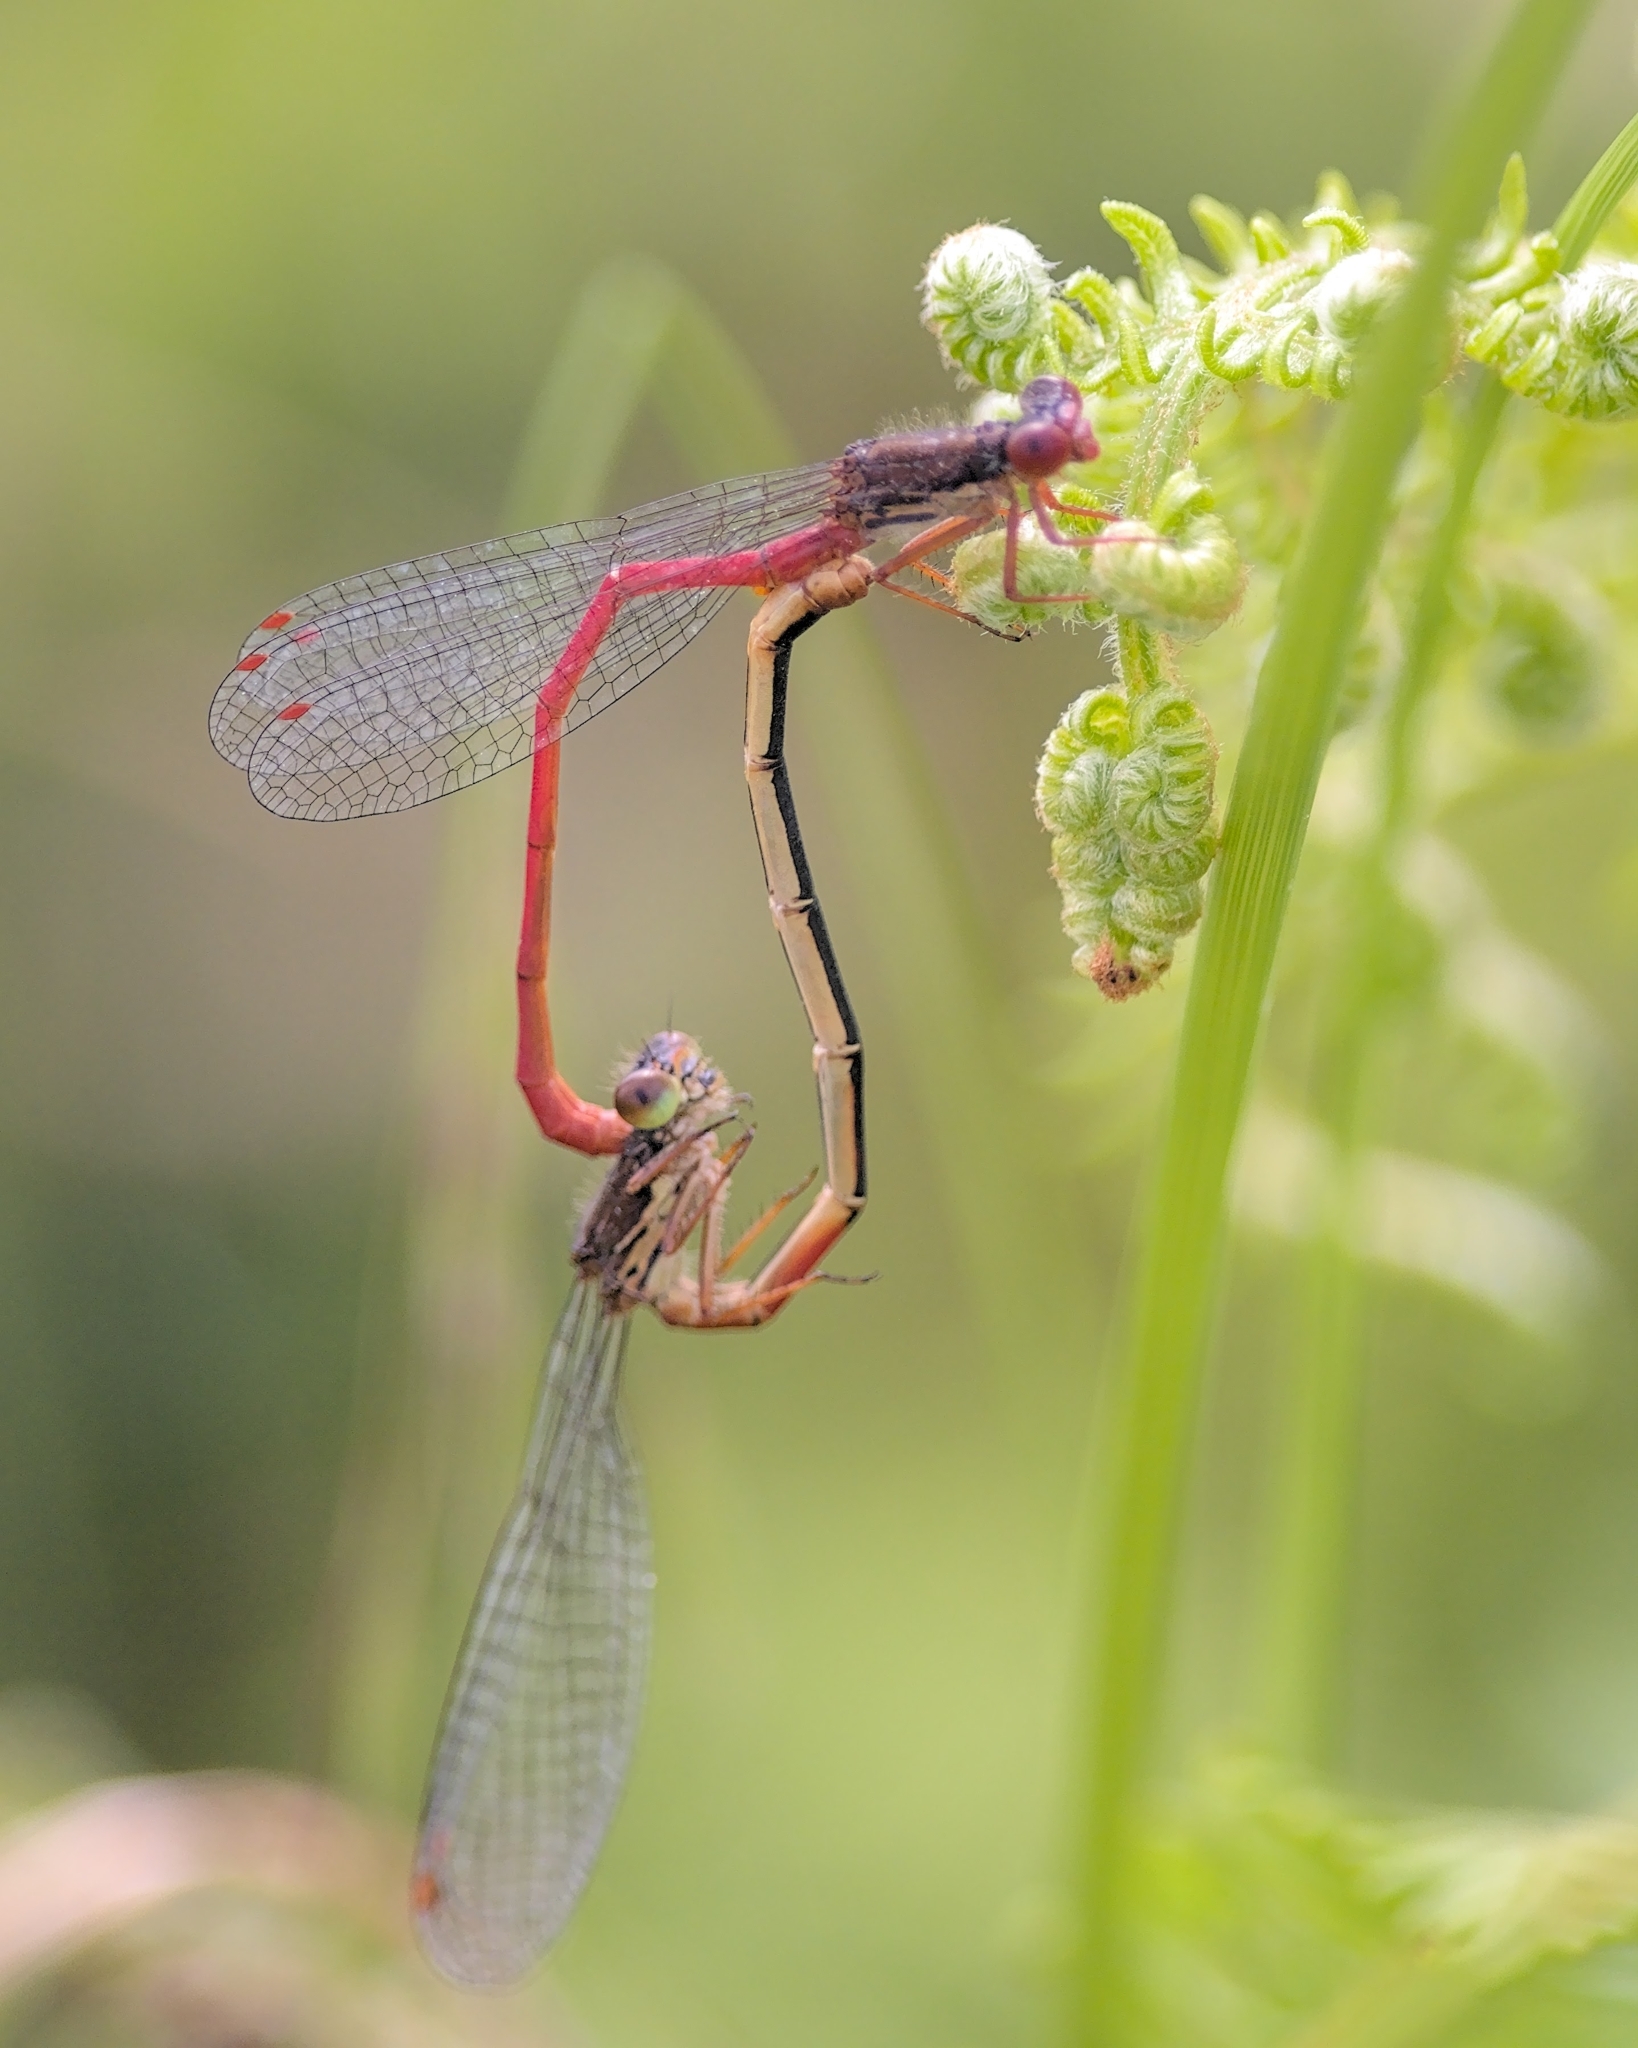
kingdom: Animalia
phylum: Arthropoda
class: Insecta
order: Odonata
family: Coenagrionidae
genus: Ceriagrion
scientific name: Ceriagrion tenellum
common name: Small red damselfly
